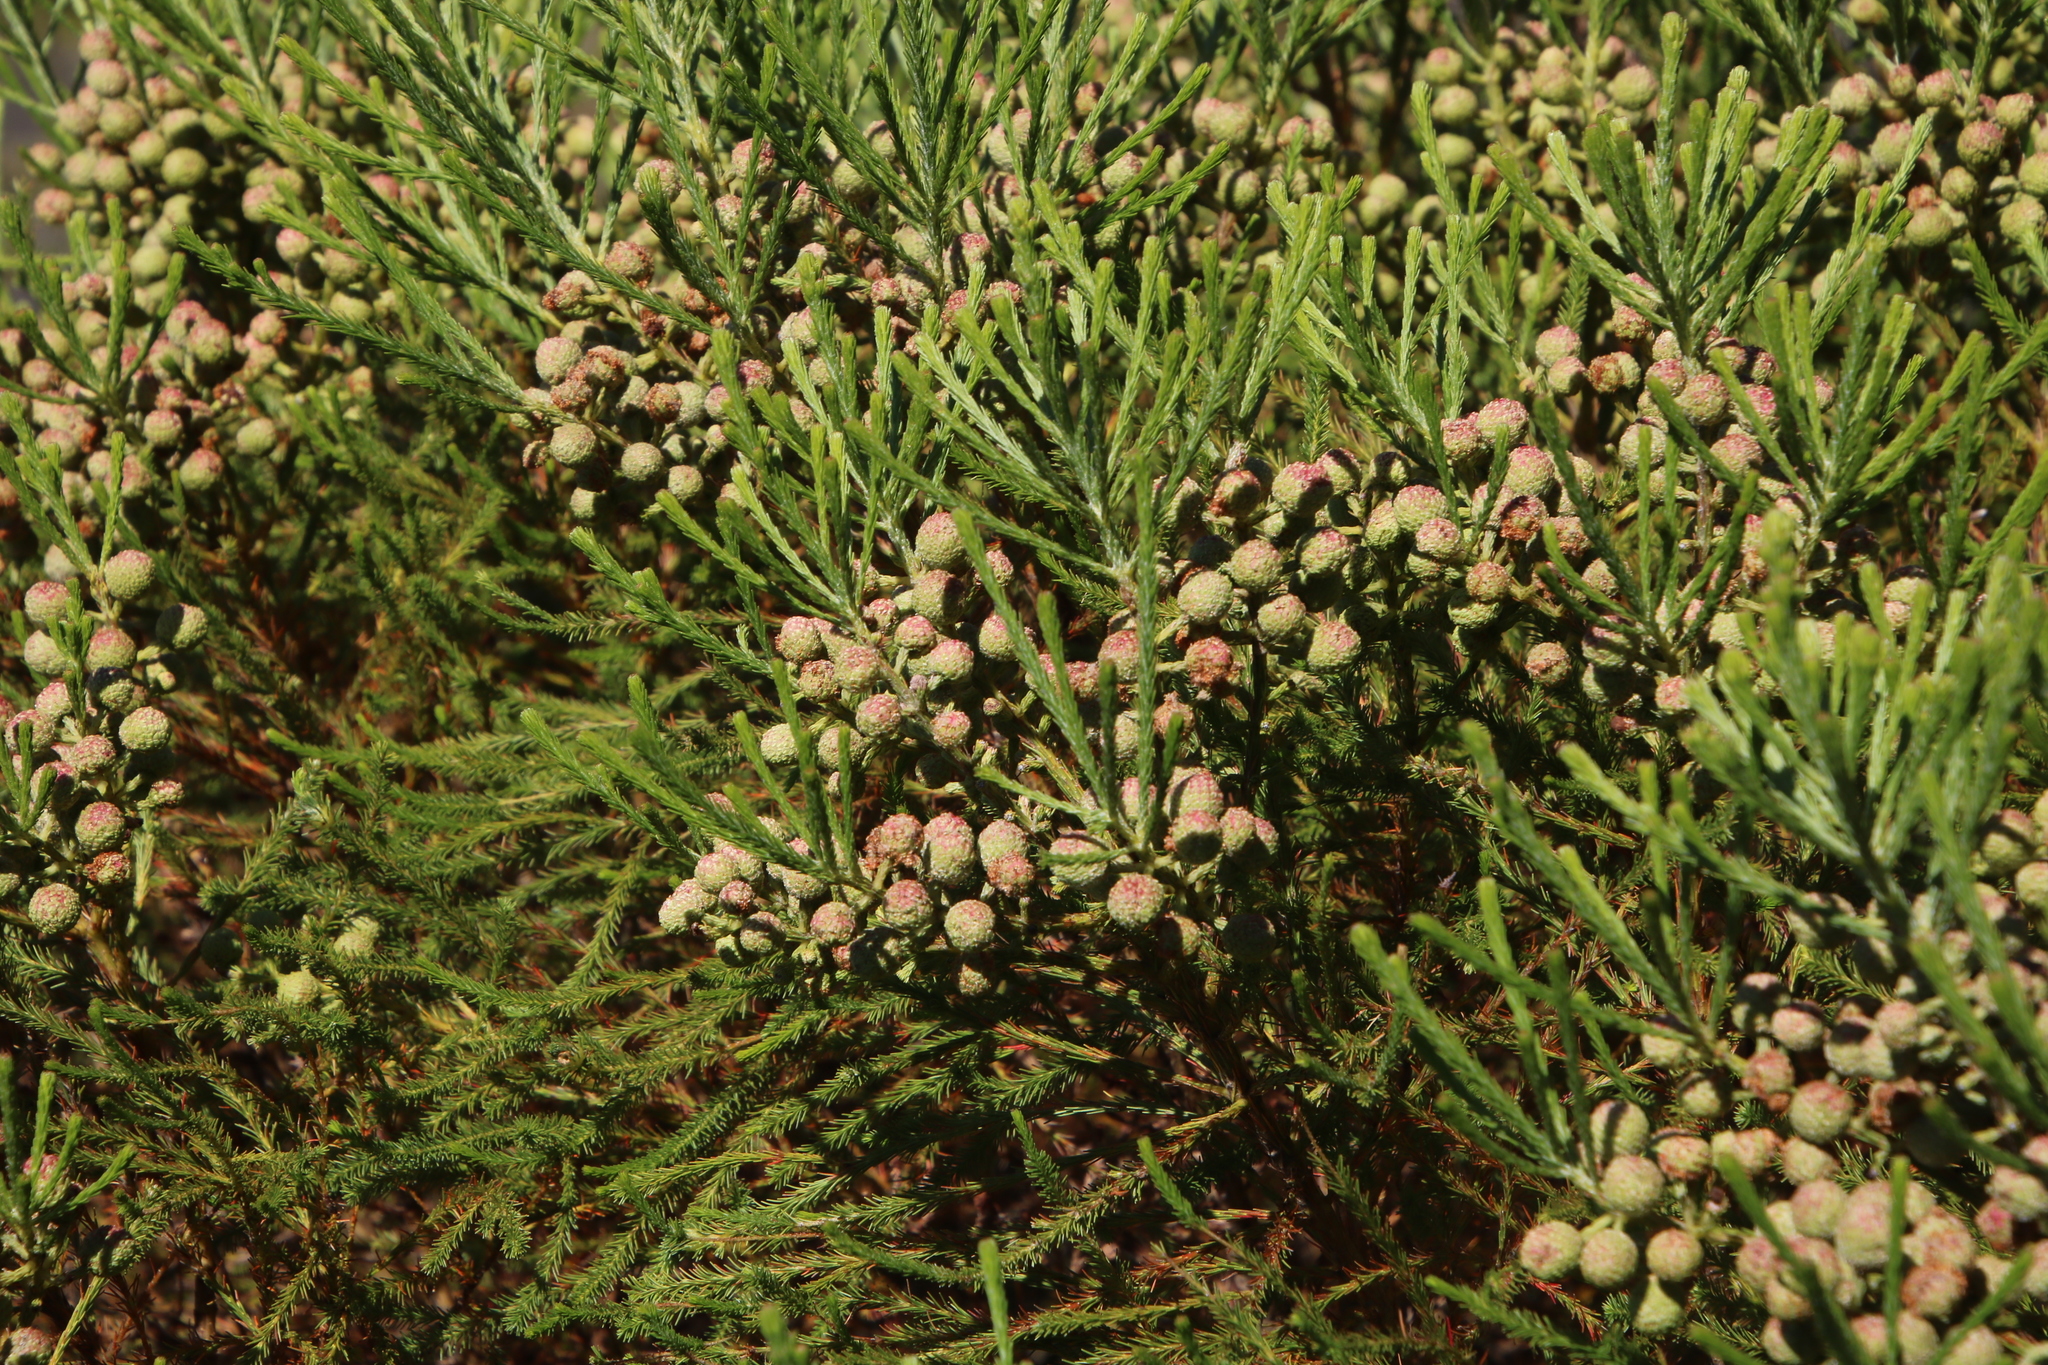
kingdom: Plantae
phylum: Tracheophyta
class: Magnoliopsida
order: Bruniales
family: Bruniaceae
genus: Berzelia
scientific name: Berzelia lanuginosa
